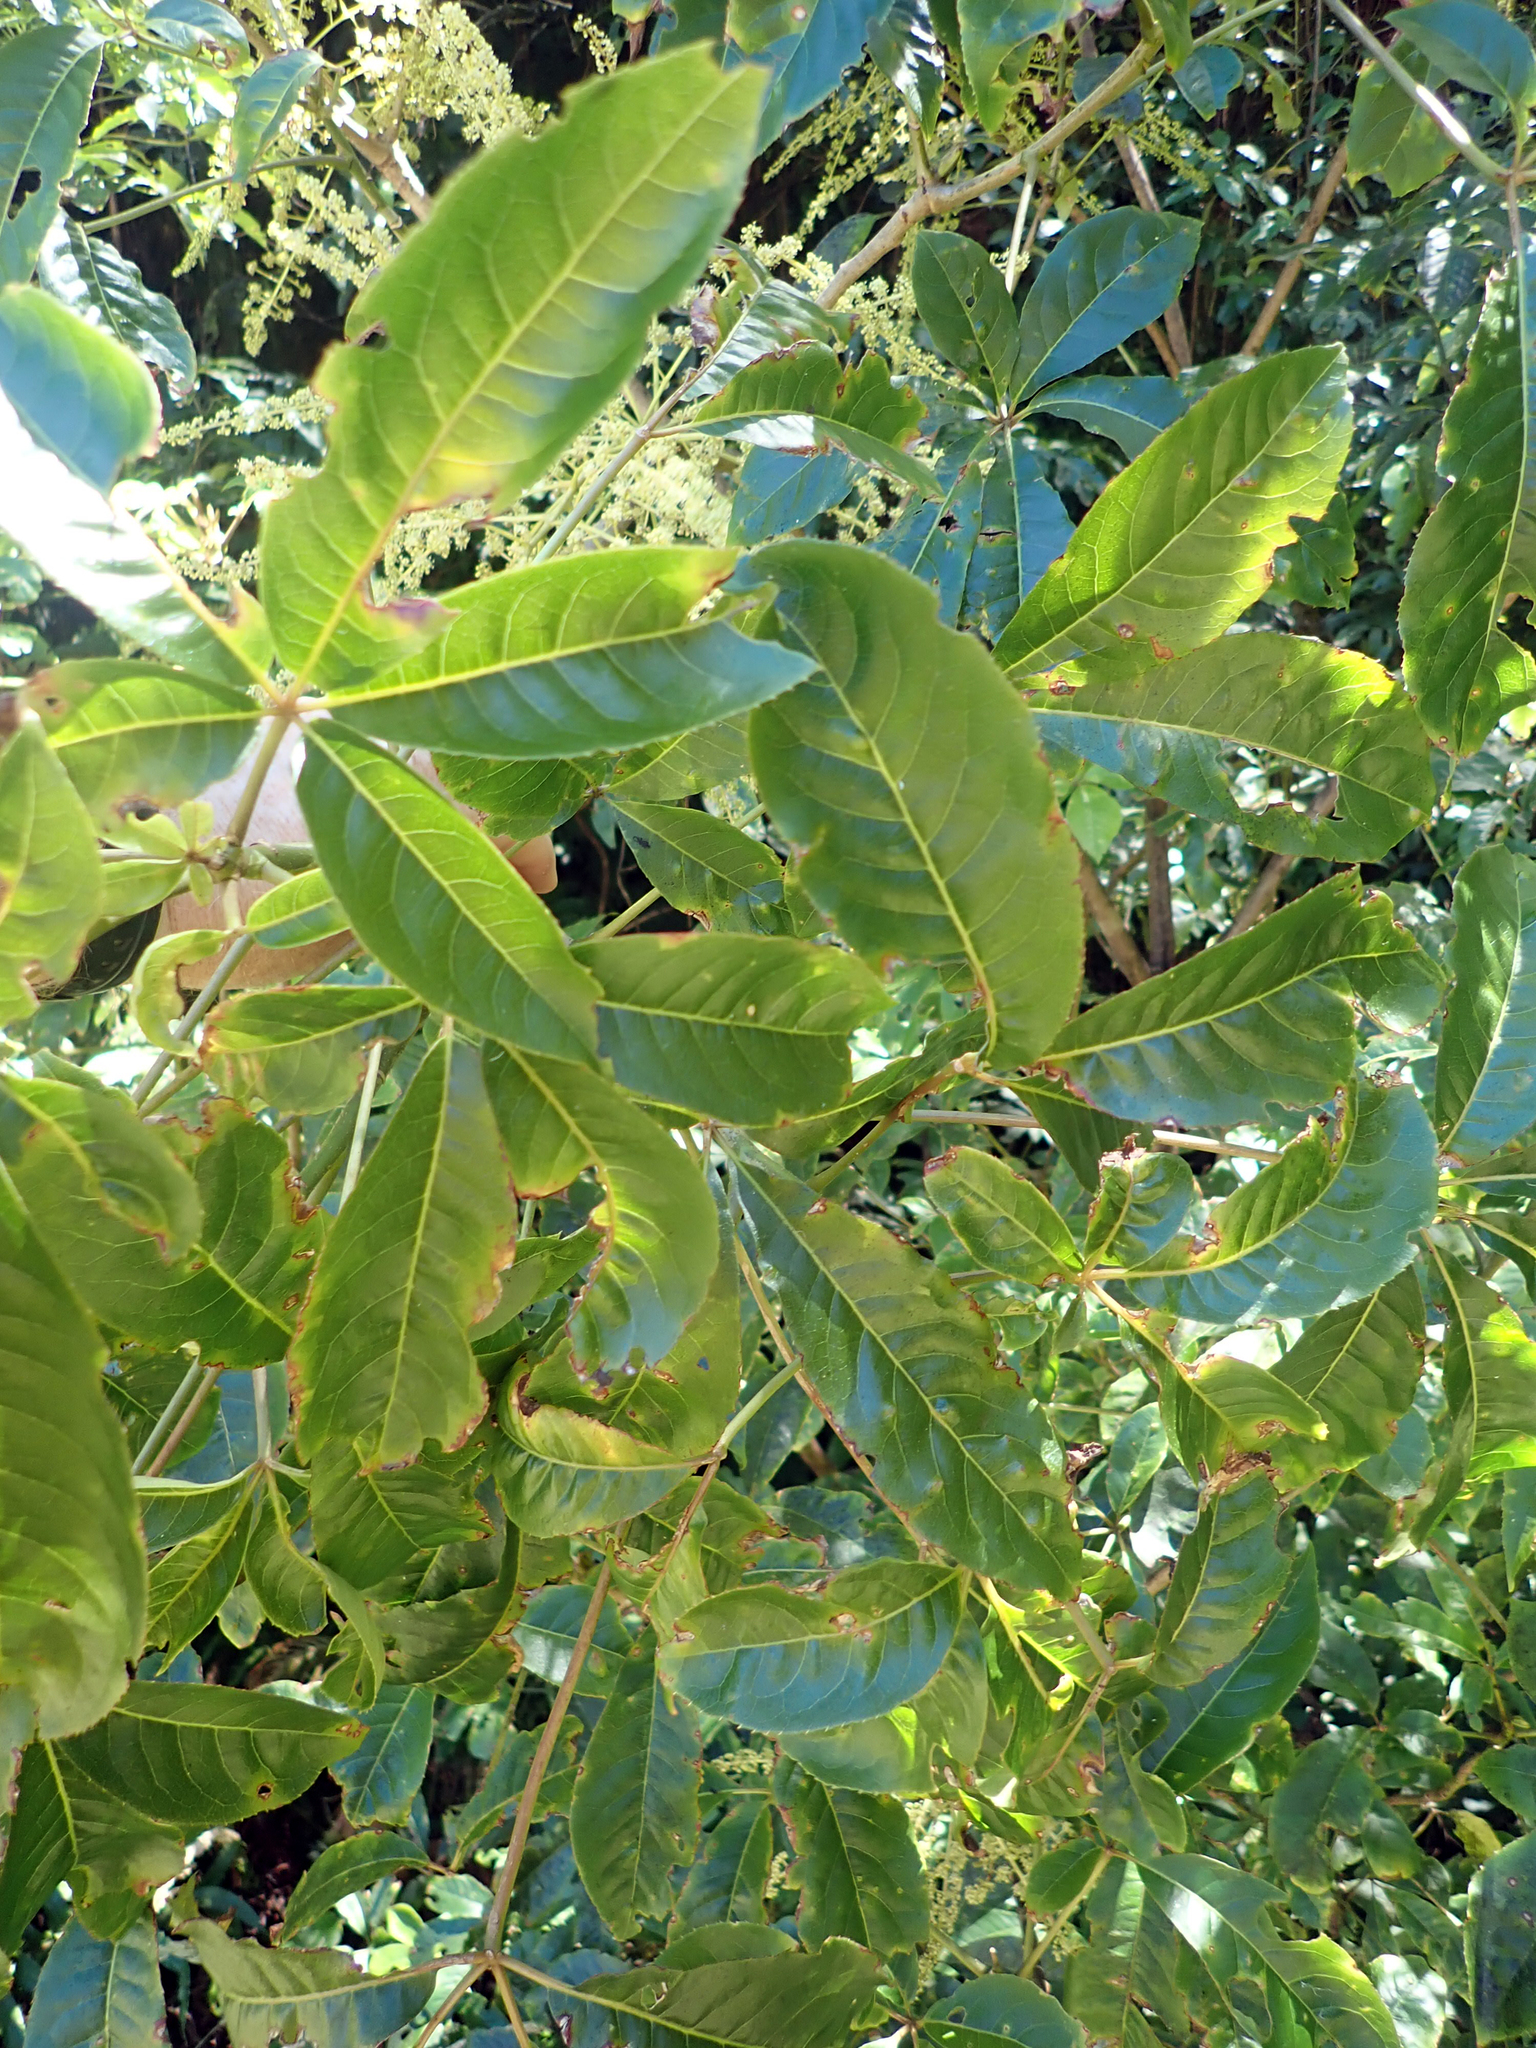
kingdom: Plantae
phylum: Tracheophyta
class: Magnoliopsida
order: Apiales
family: Araliaceae
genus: Schefflera
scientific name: Schefflera digitata
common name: Pate
